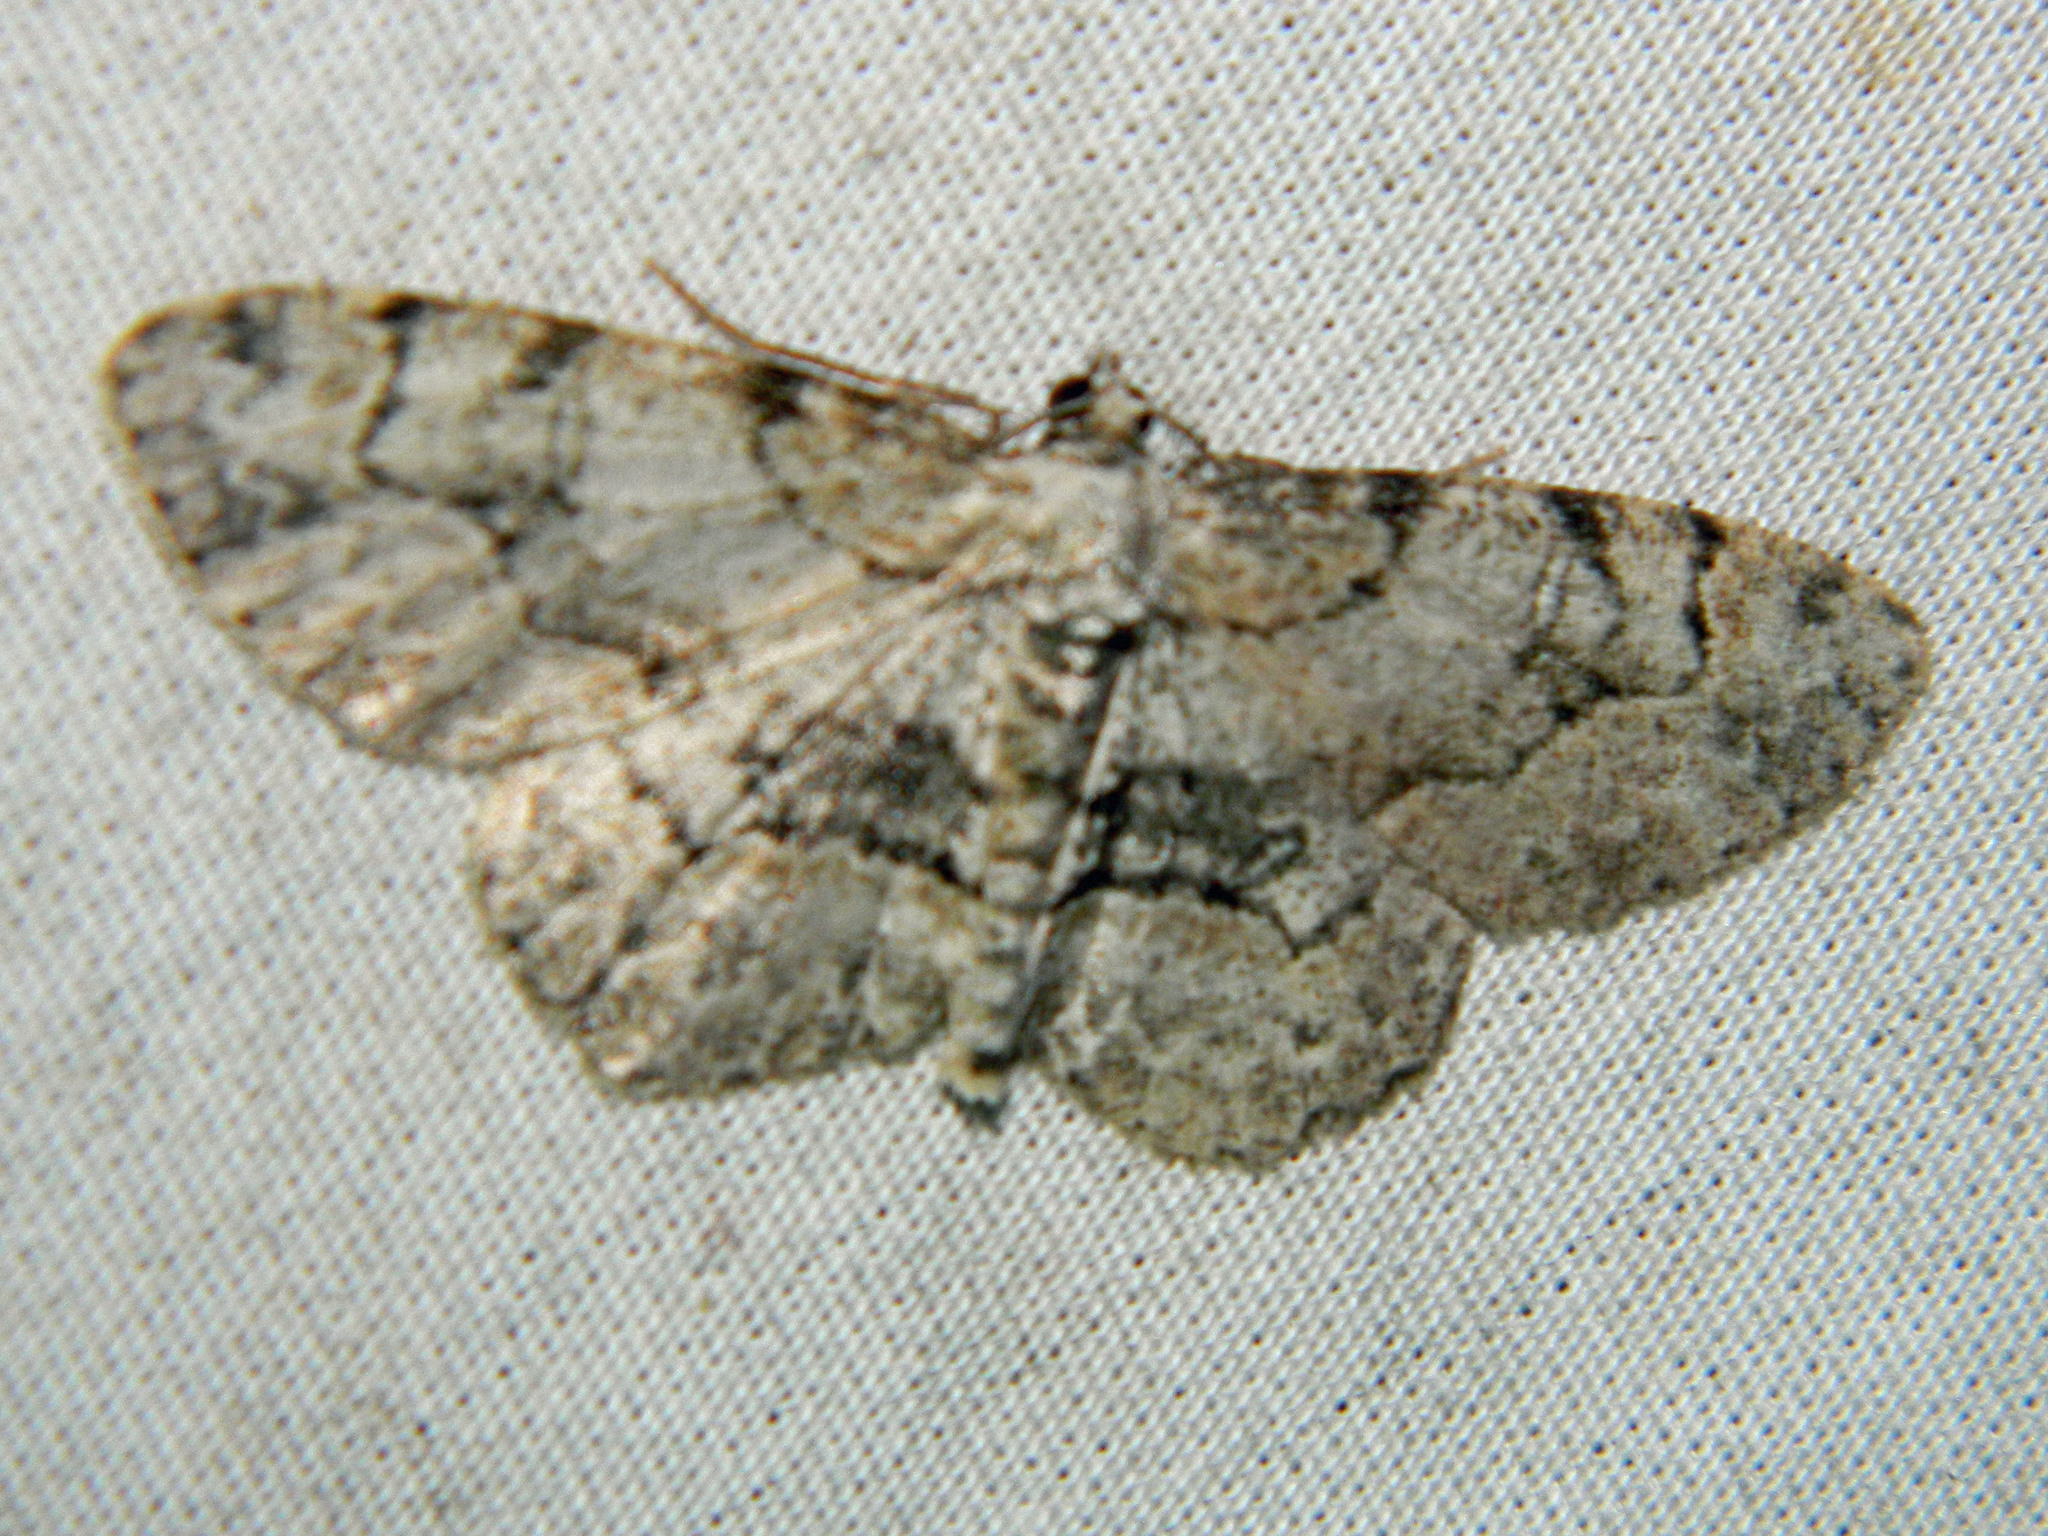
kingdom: Animalia
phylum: Arthropoda
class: Insecta
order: Lepidoptera
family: Geometridae
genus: Iridopsis
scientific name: Iridopsis ephyraria
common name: Pale-winged gray
